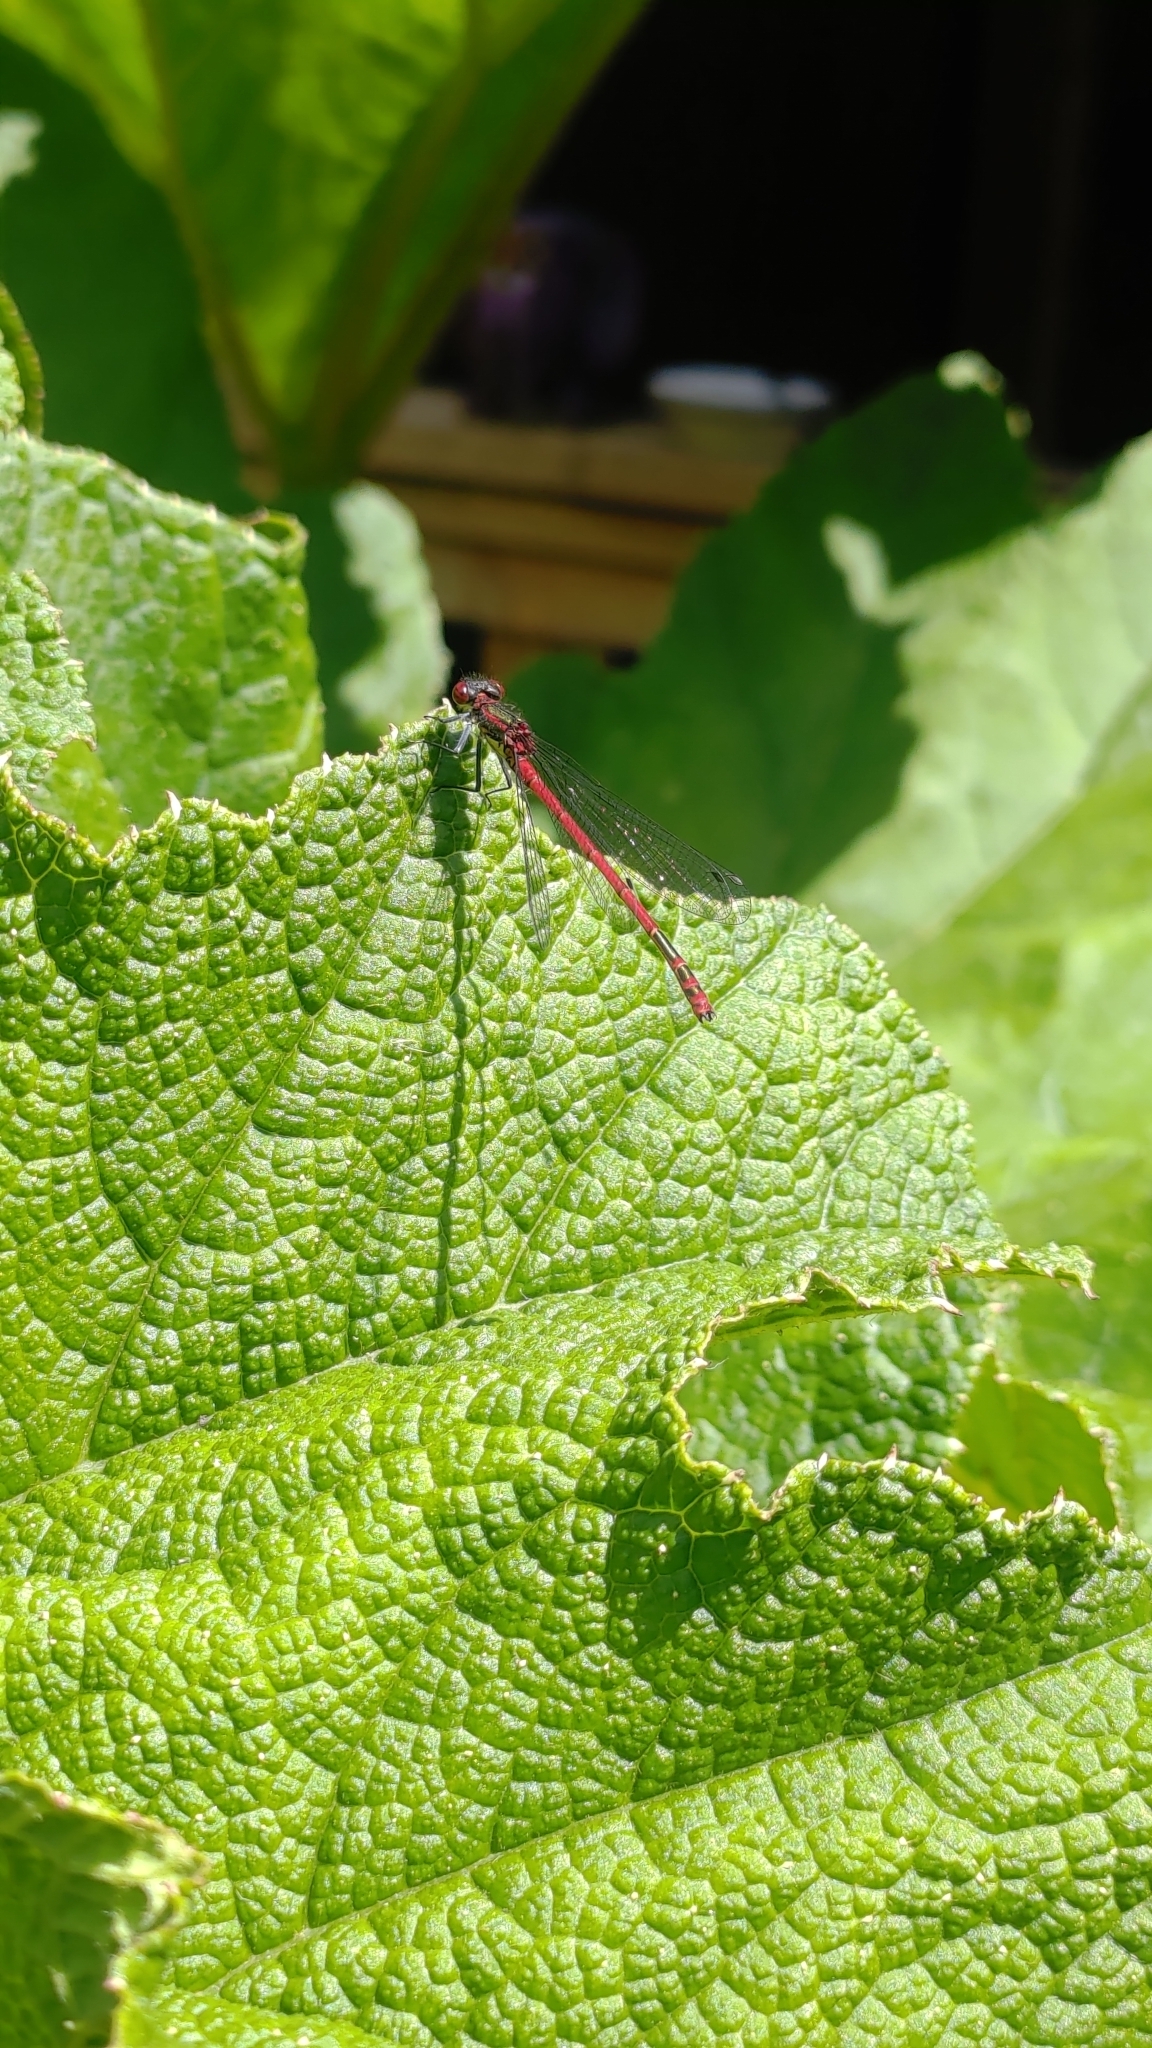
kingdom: Animalia
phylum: Arthropoda
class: Insecta
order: Odonata
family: Coenagrionidae
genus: Pyrrhosoma
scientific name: Pyrrhosoma nymphula
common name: Large red damsel
